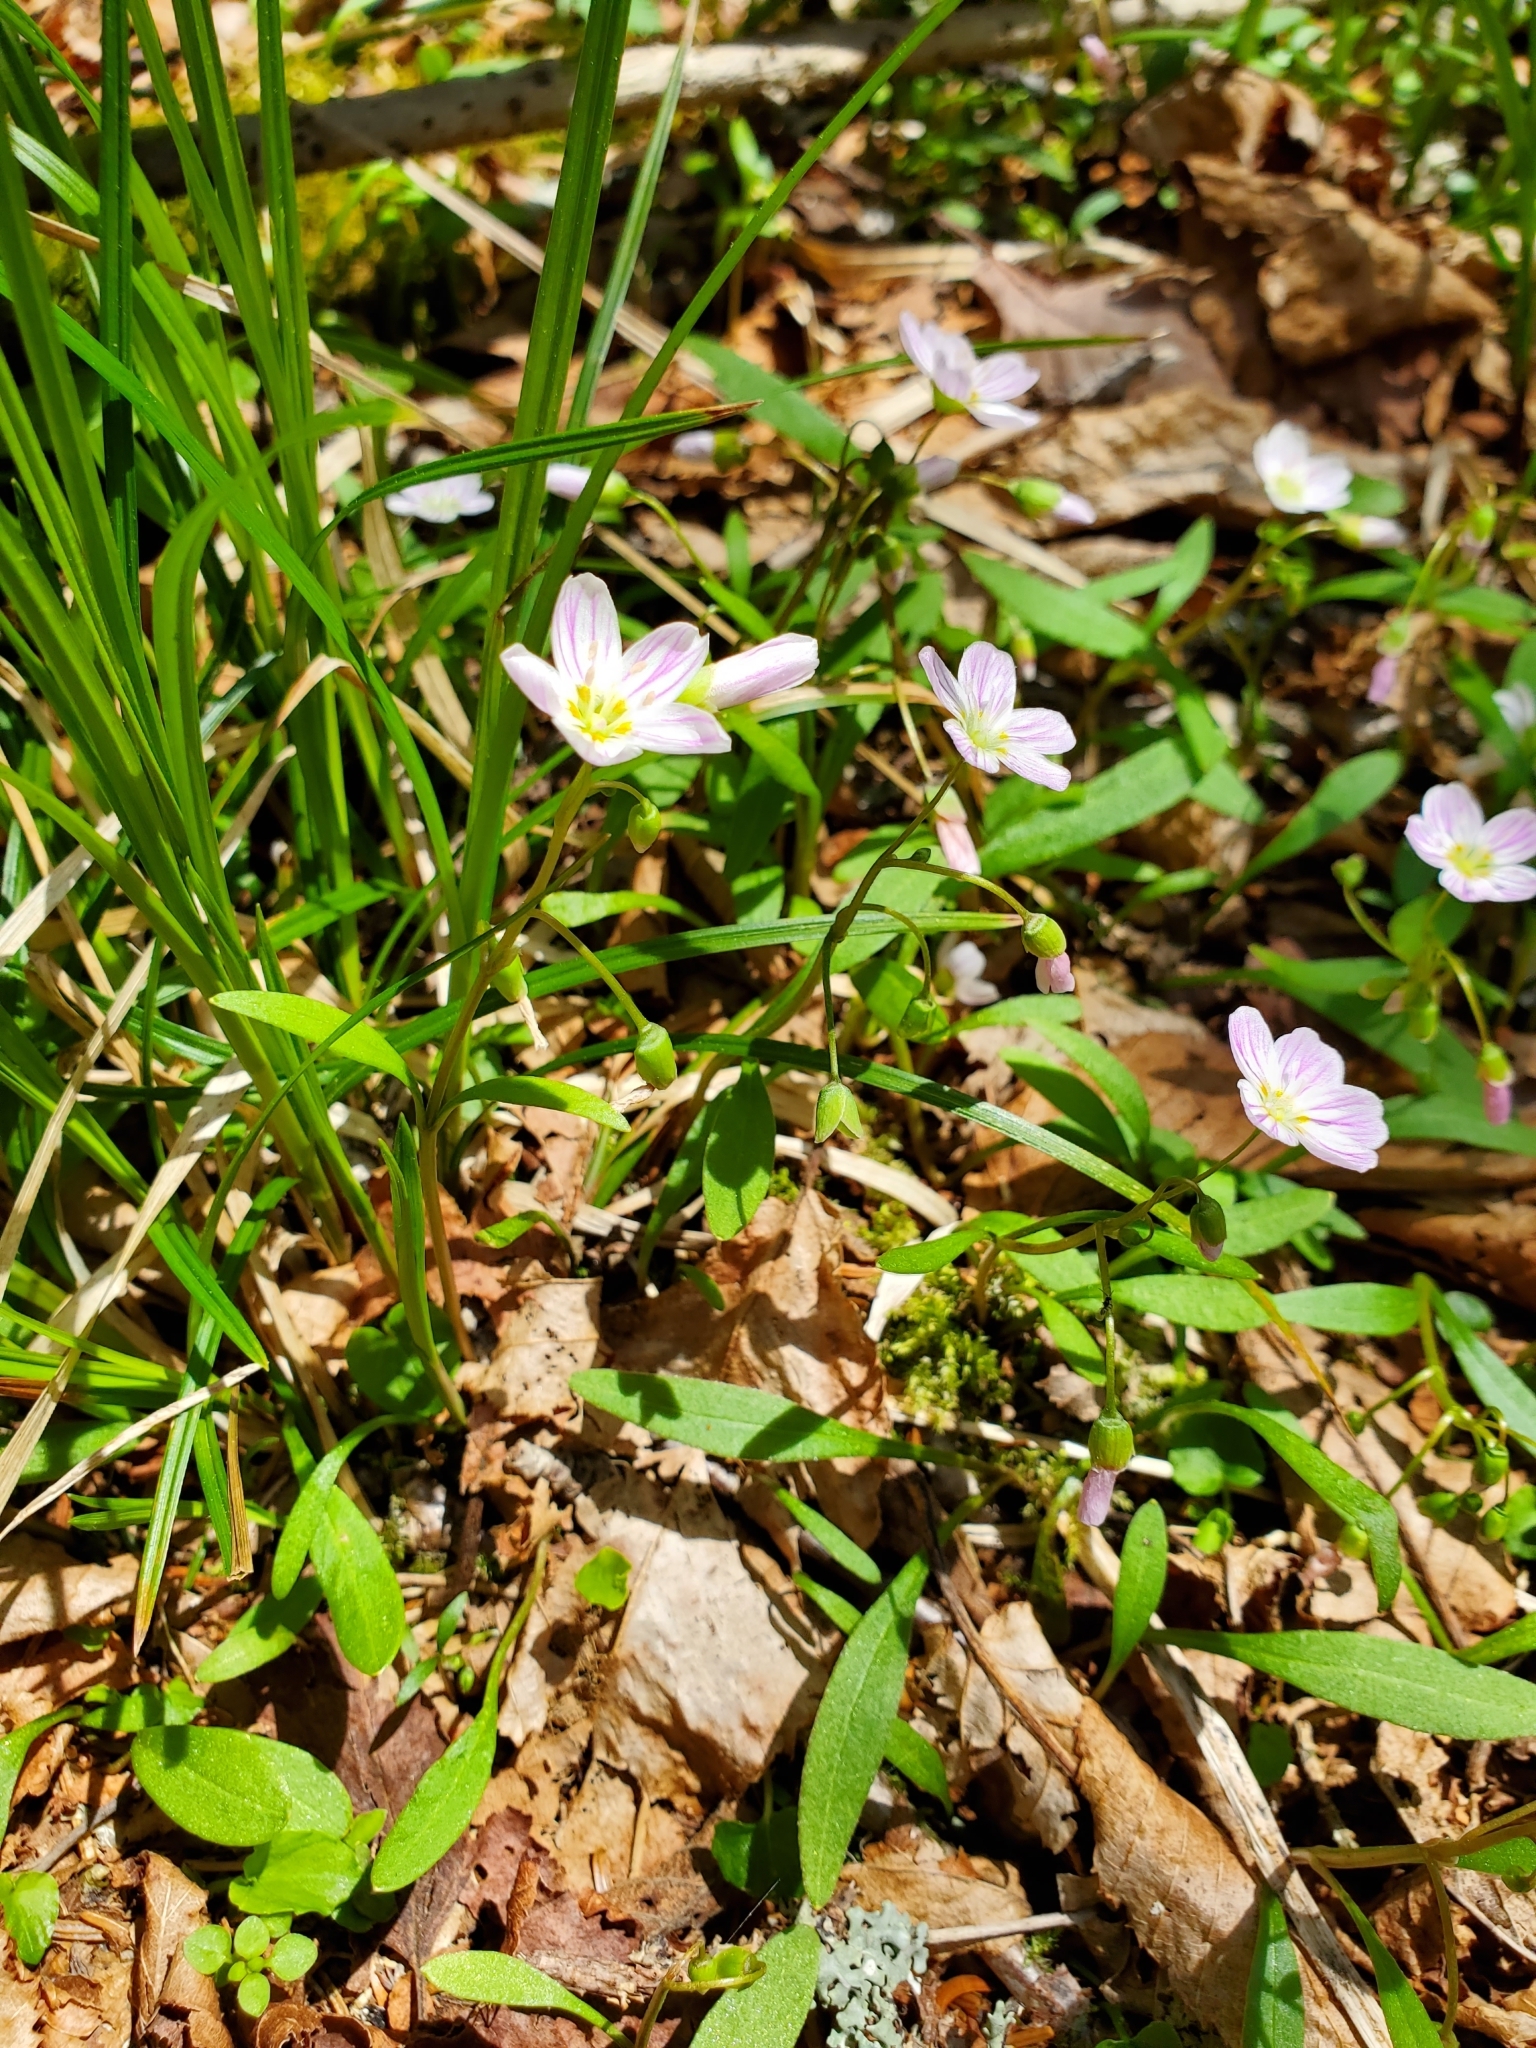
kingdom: Plantae
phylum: Tracheophyta
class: Magnoliopsida
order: Caryophyllales
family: Montiaceae
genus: Claytonia
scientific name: Claytonia caroliniana
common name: Carolina spring beauty
